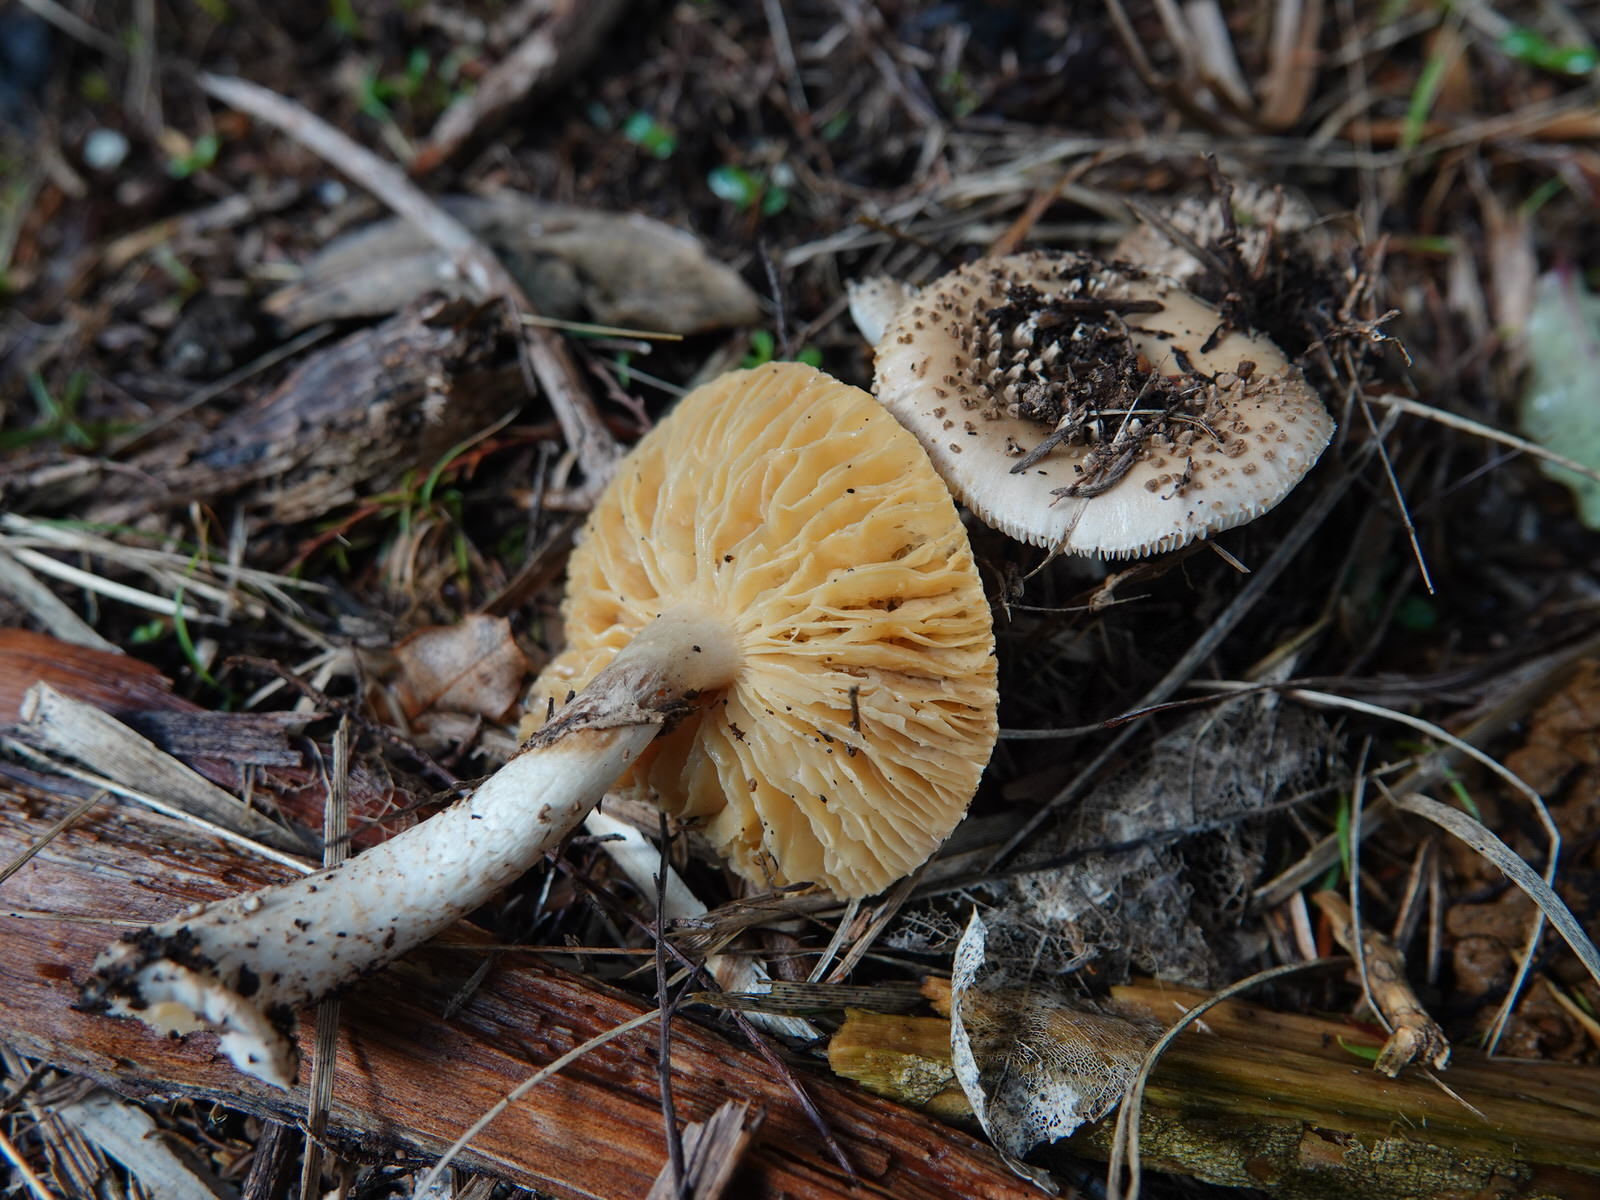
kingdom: Fungi
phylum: Basidiomycota
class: Agaricomycetes
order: Agaricales
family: Amanitaceae
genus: Amanita
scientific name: Amanita australis
